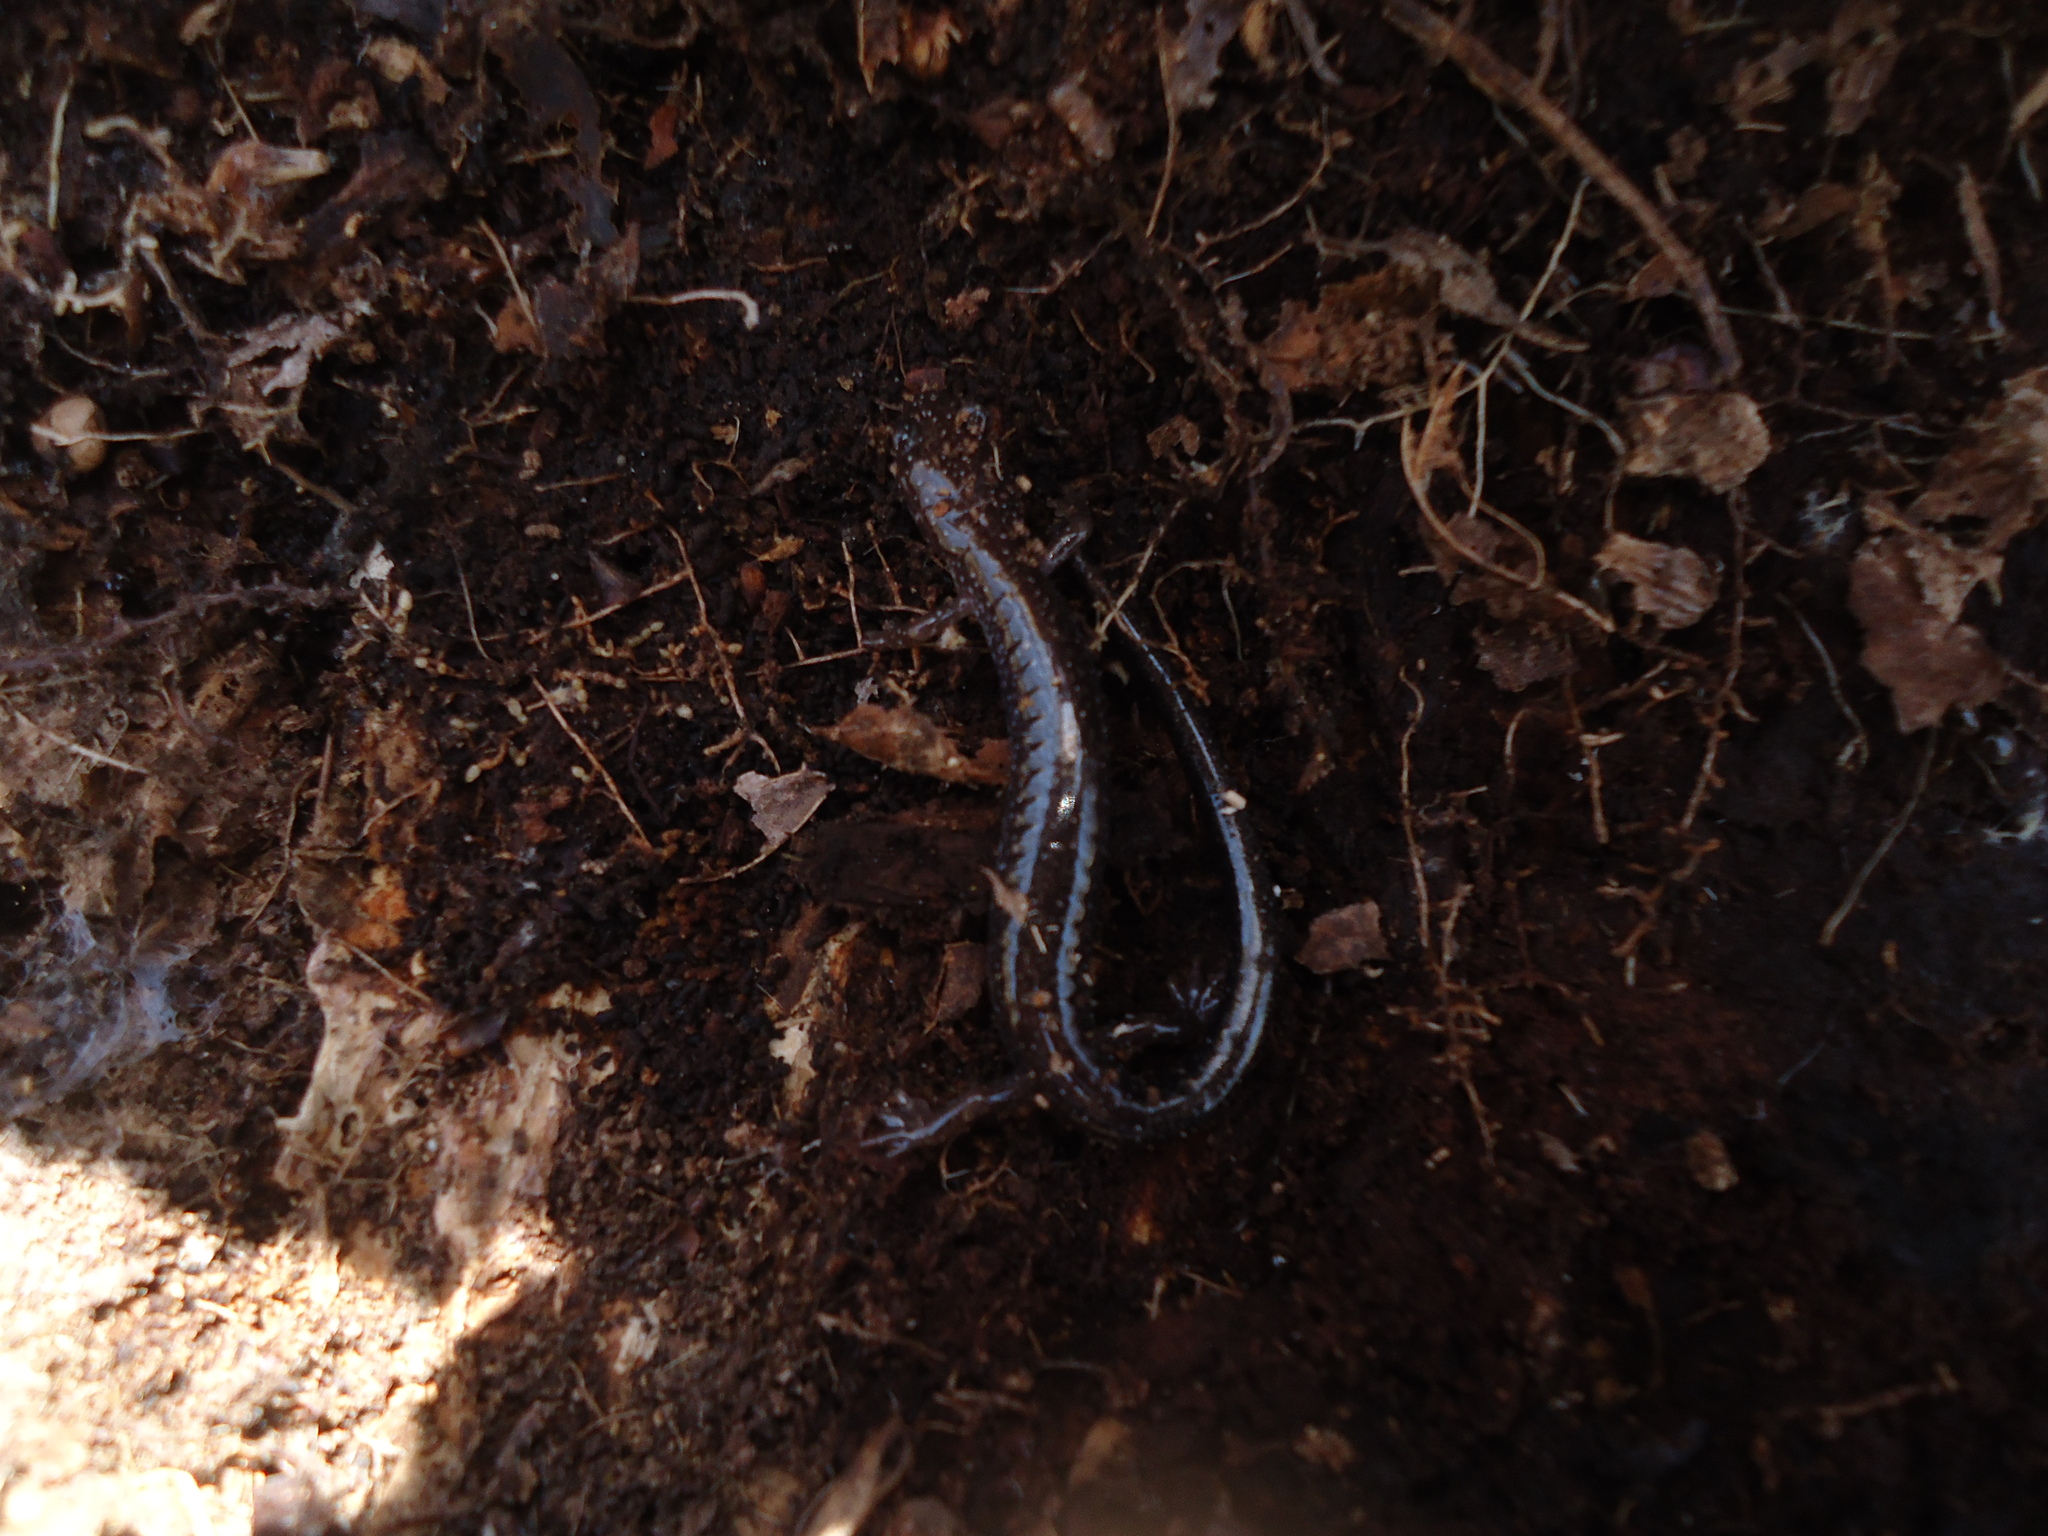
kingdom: Animalia
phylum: Chordata
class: Amphibia
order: Caudata
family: Plethodontidae
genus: Plethodon
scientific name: Plethodon cinereus
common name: Redback salamander
